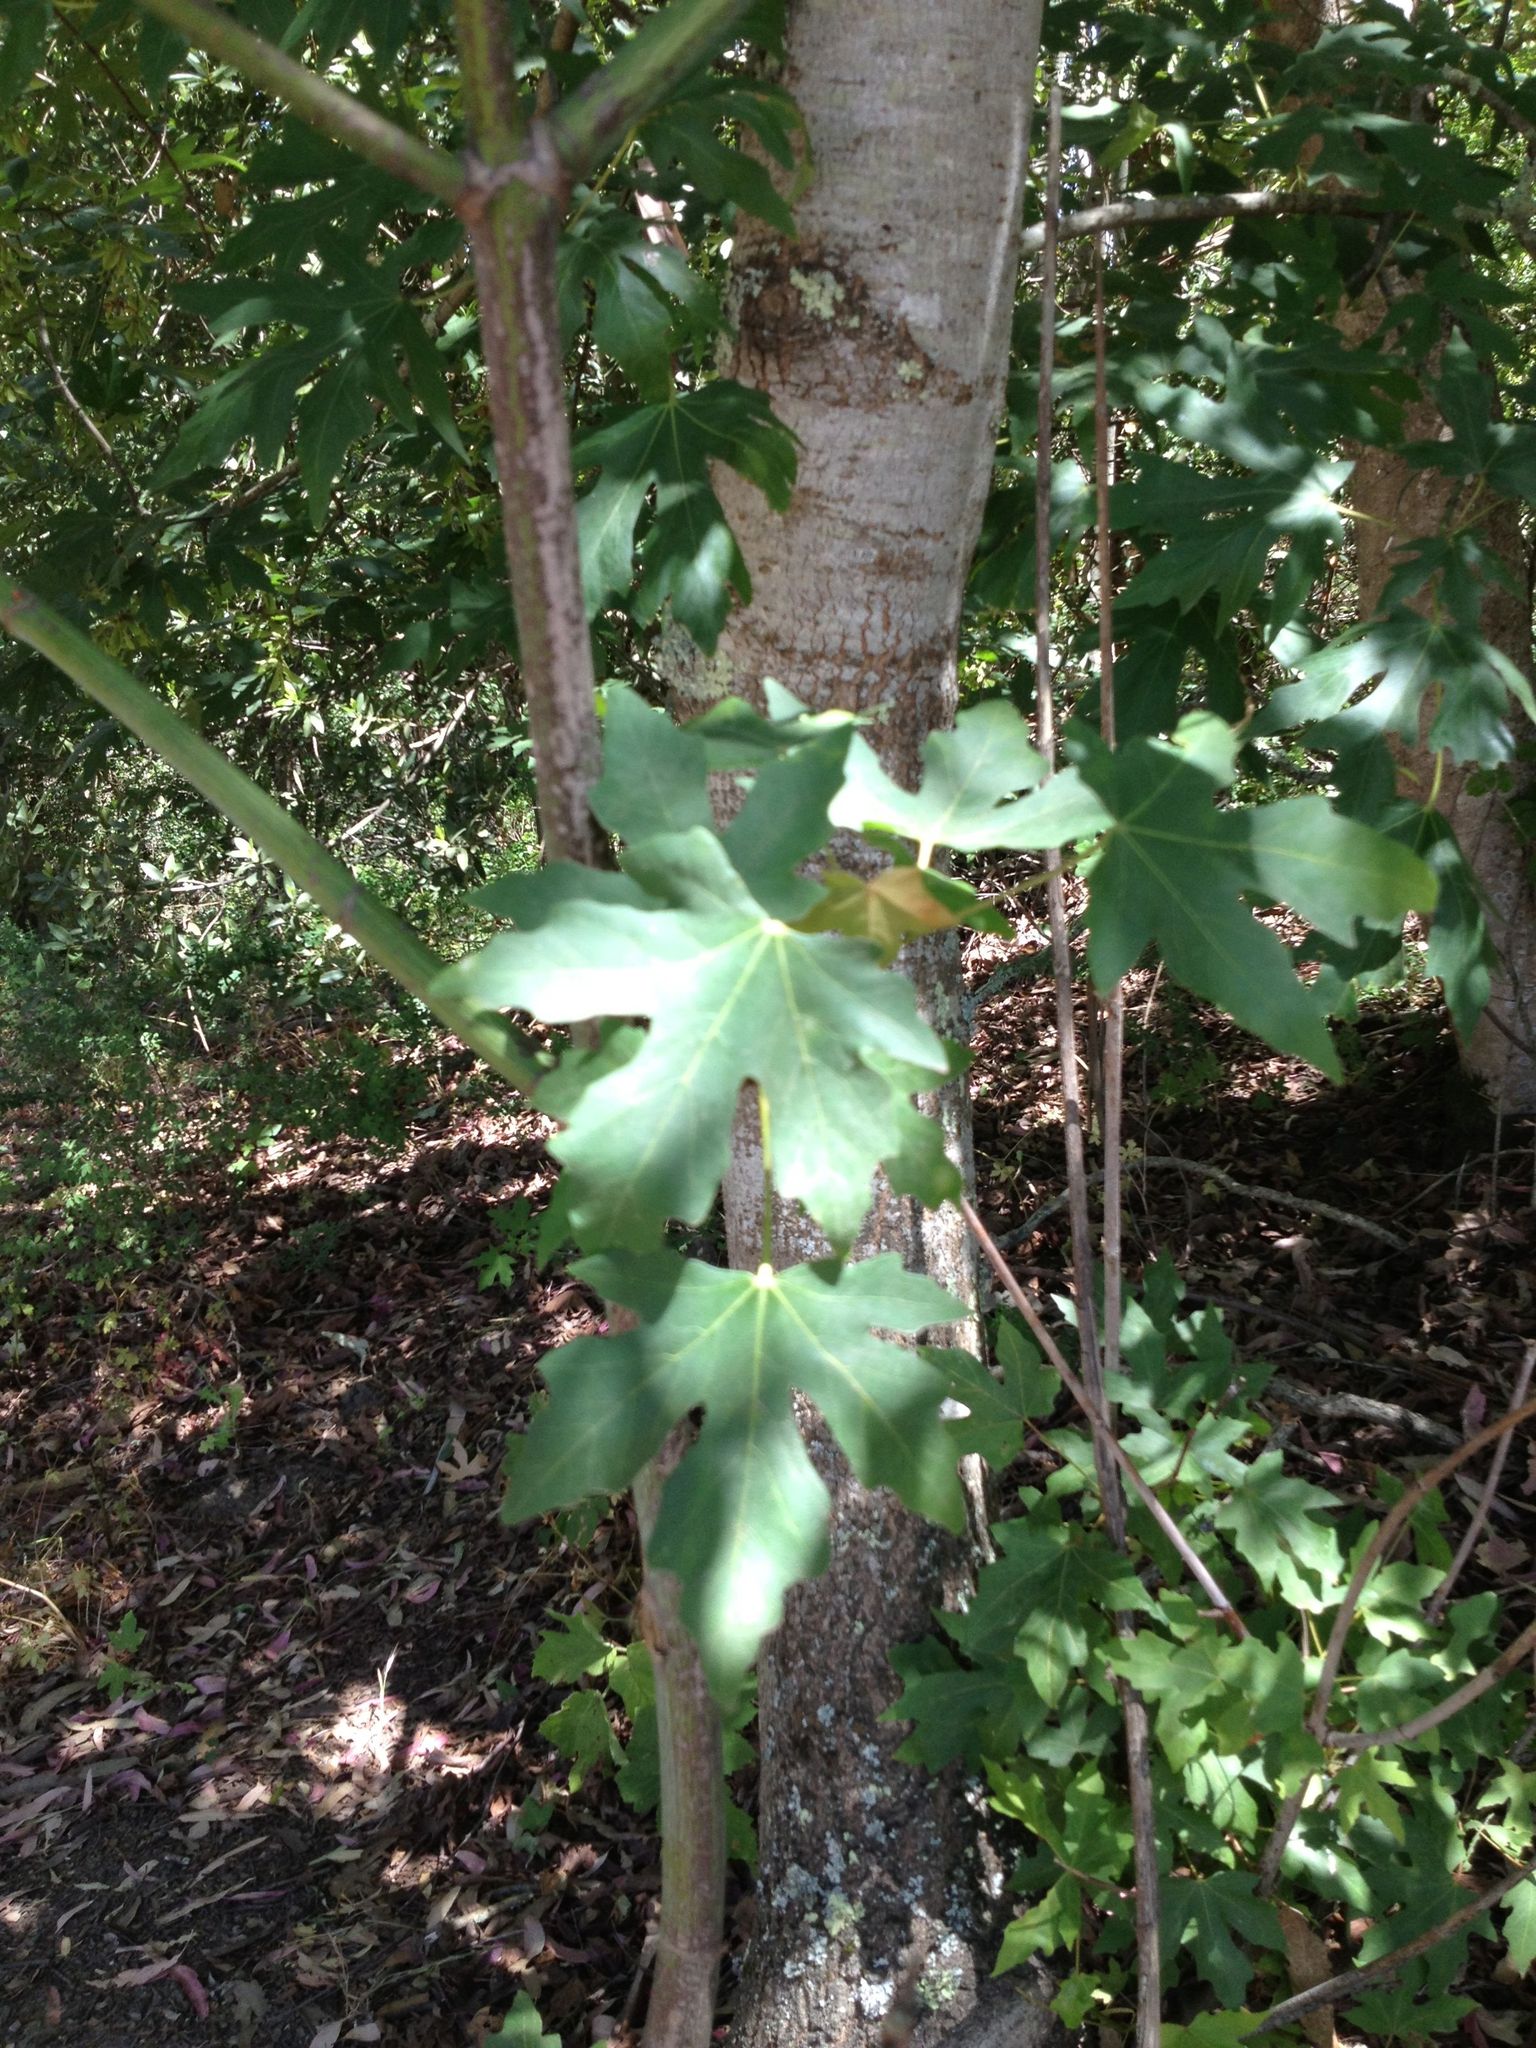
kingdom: Plantae
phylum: Tracheophyta
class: Magnoliopsida
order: Sapindales
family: Sapindaceae
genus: Acer
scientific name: Acer macrophyllum
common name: Oregon maple
